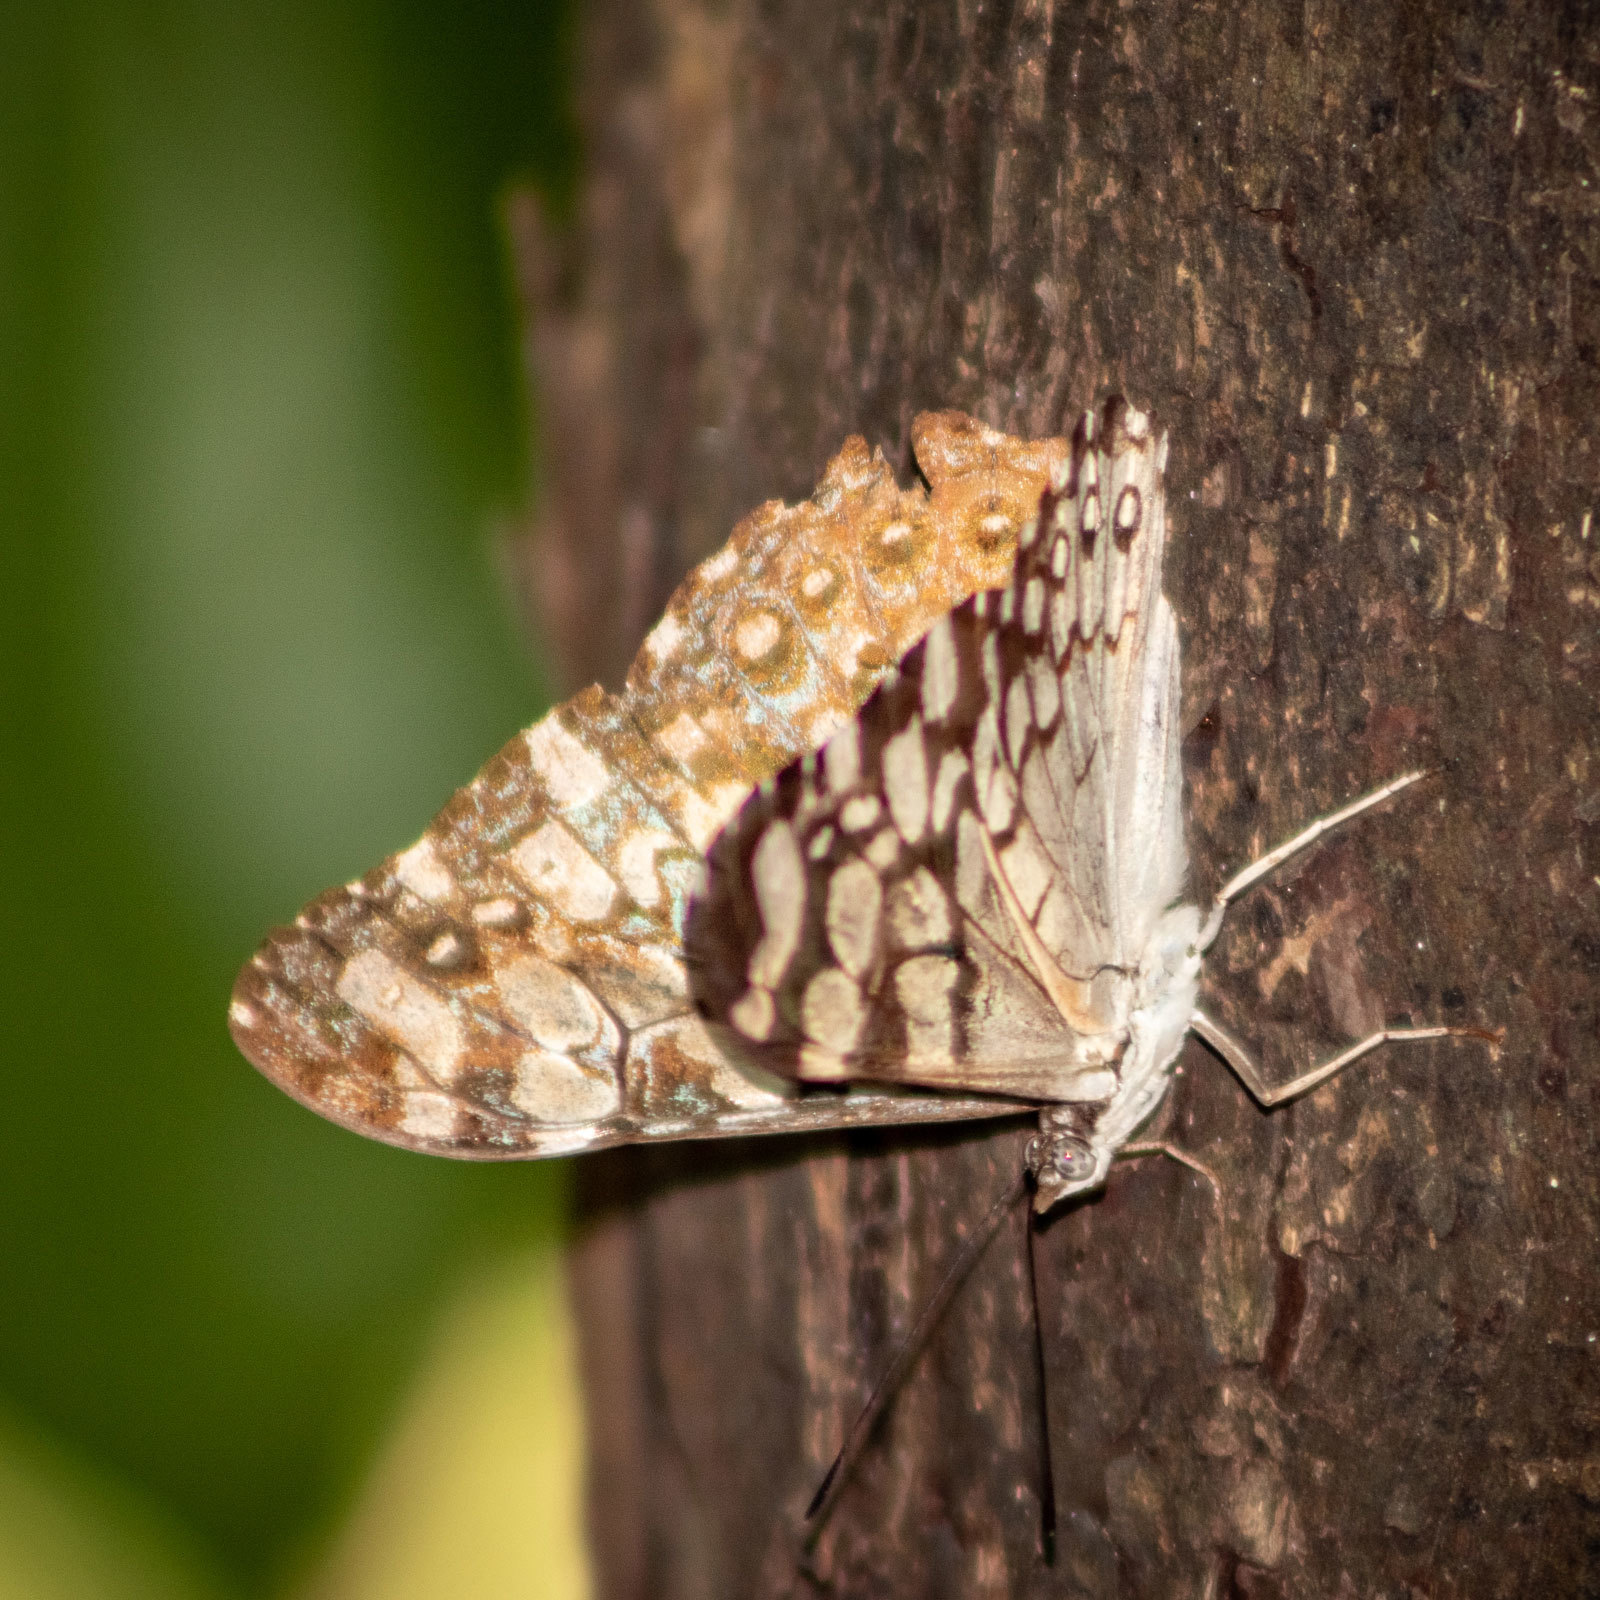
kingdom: Animalia
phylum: Arthropoda
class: Insecta
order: Lepidoptera
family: Nymphalidae
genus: Hamadryas
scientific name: Hamadryas epinome
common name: Epinome cracker
